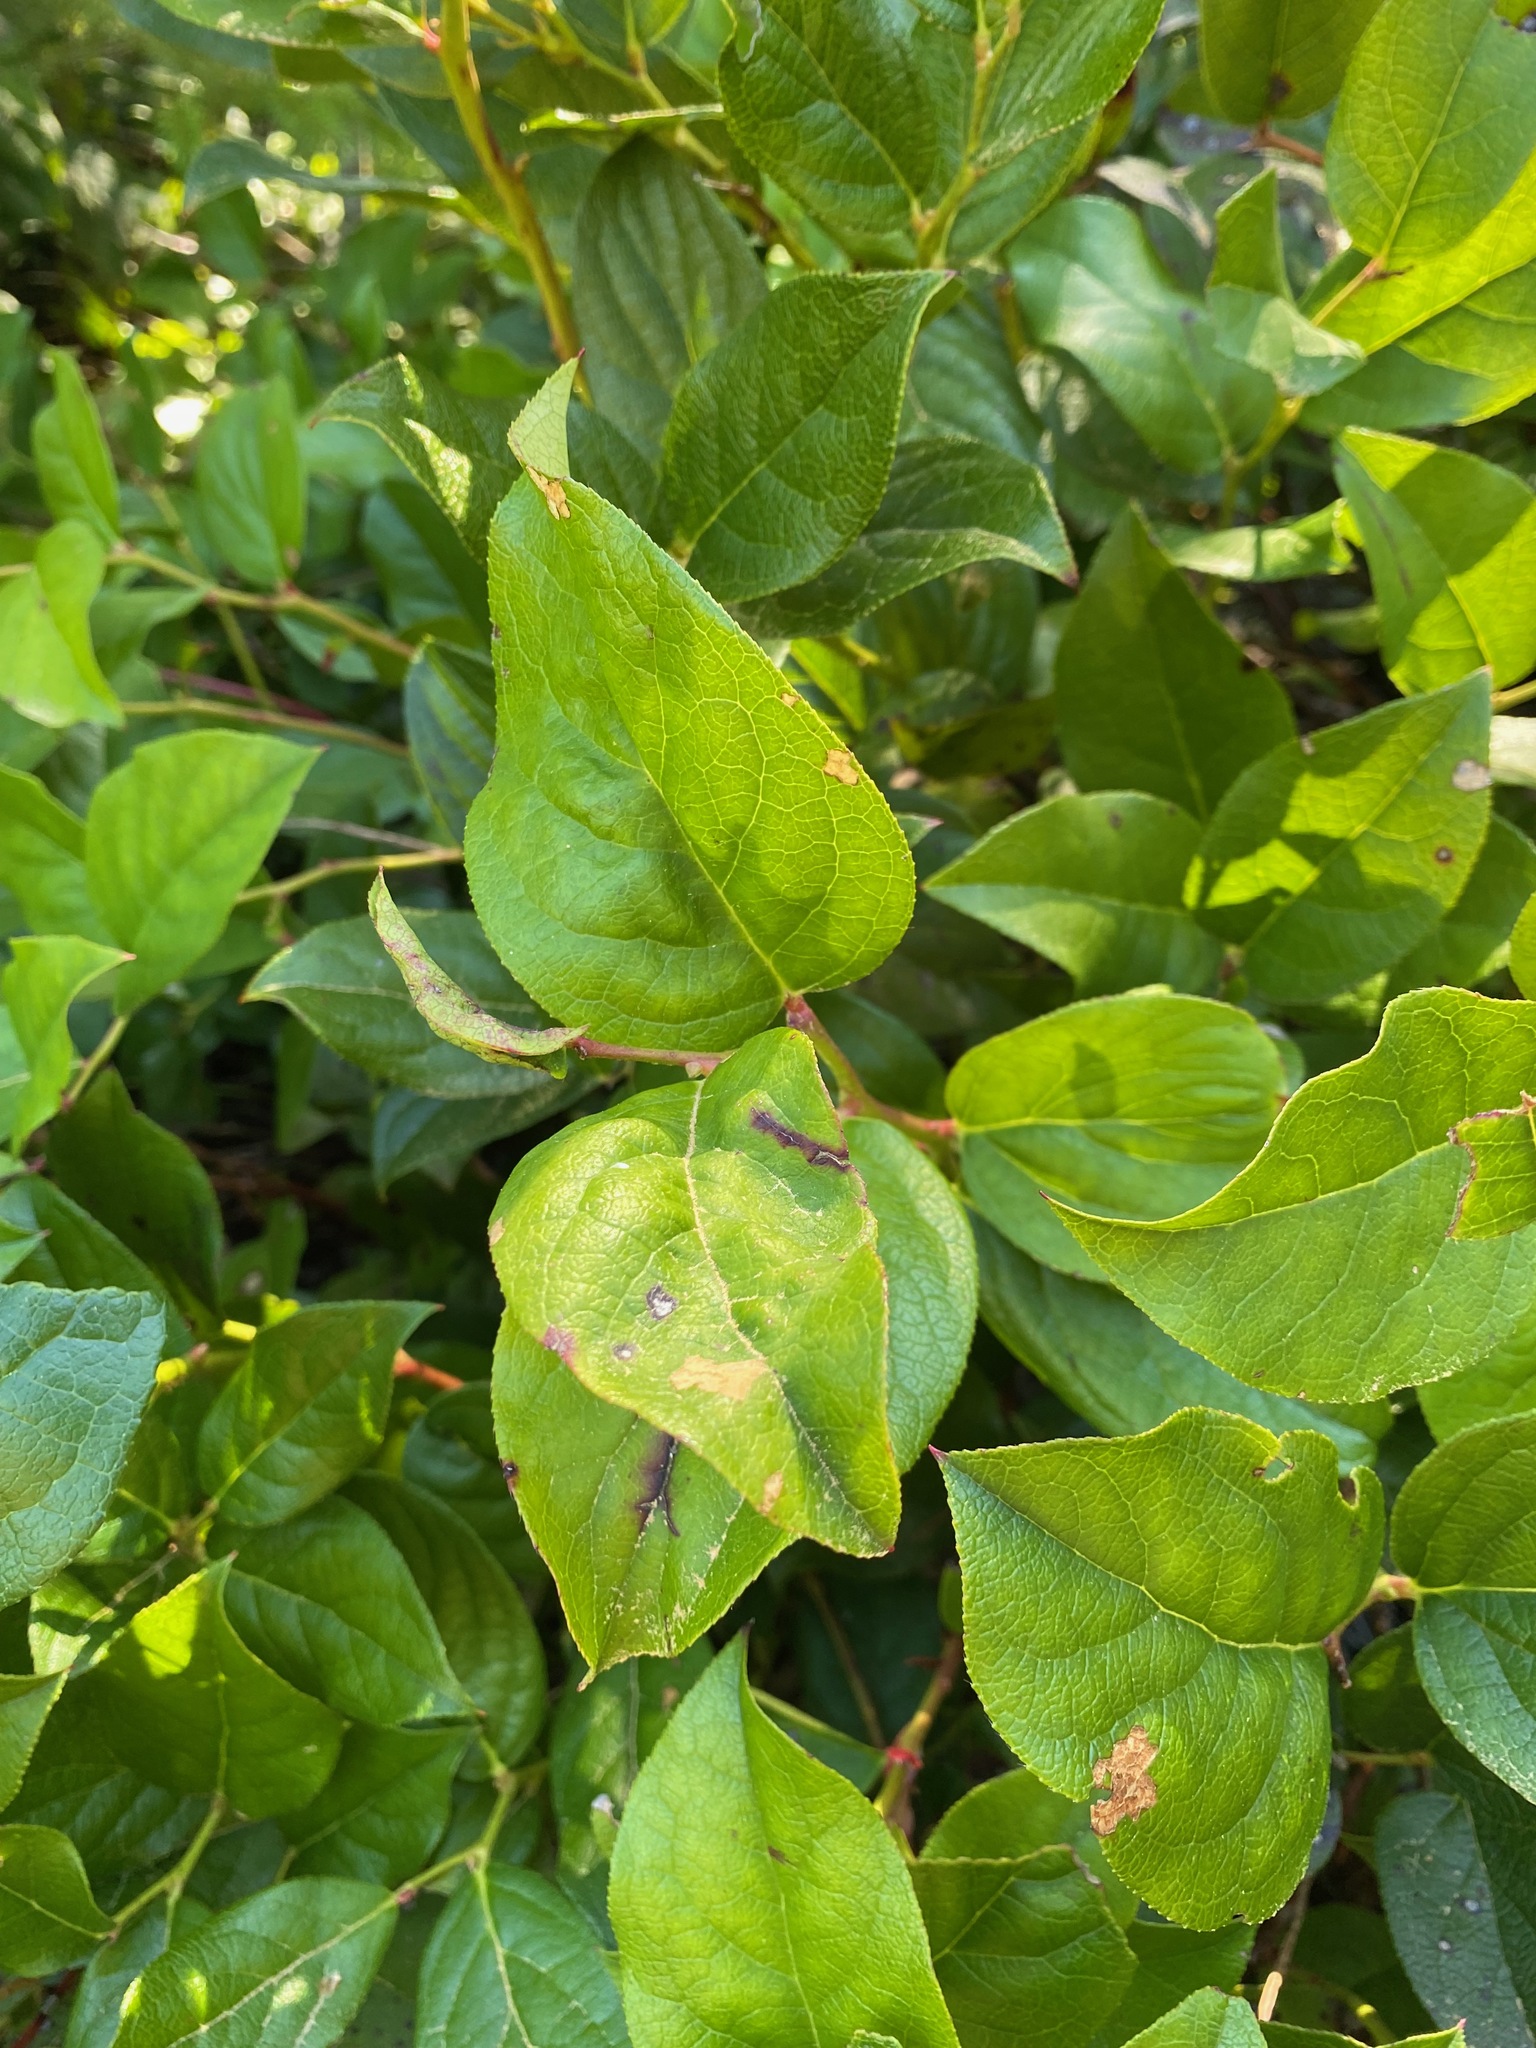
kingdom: Plantae
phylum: Tracheophyta
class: Magnoliopsida
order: Ericales
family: Ericaceae
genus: Gaultheria
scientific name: Gaultheria shallon
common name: Shallon
